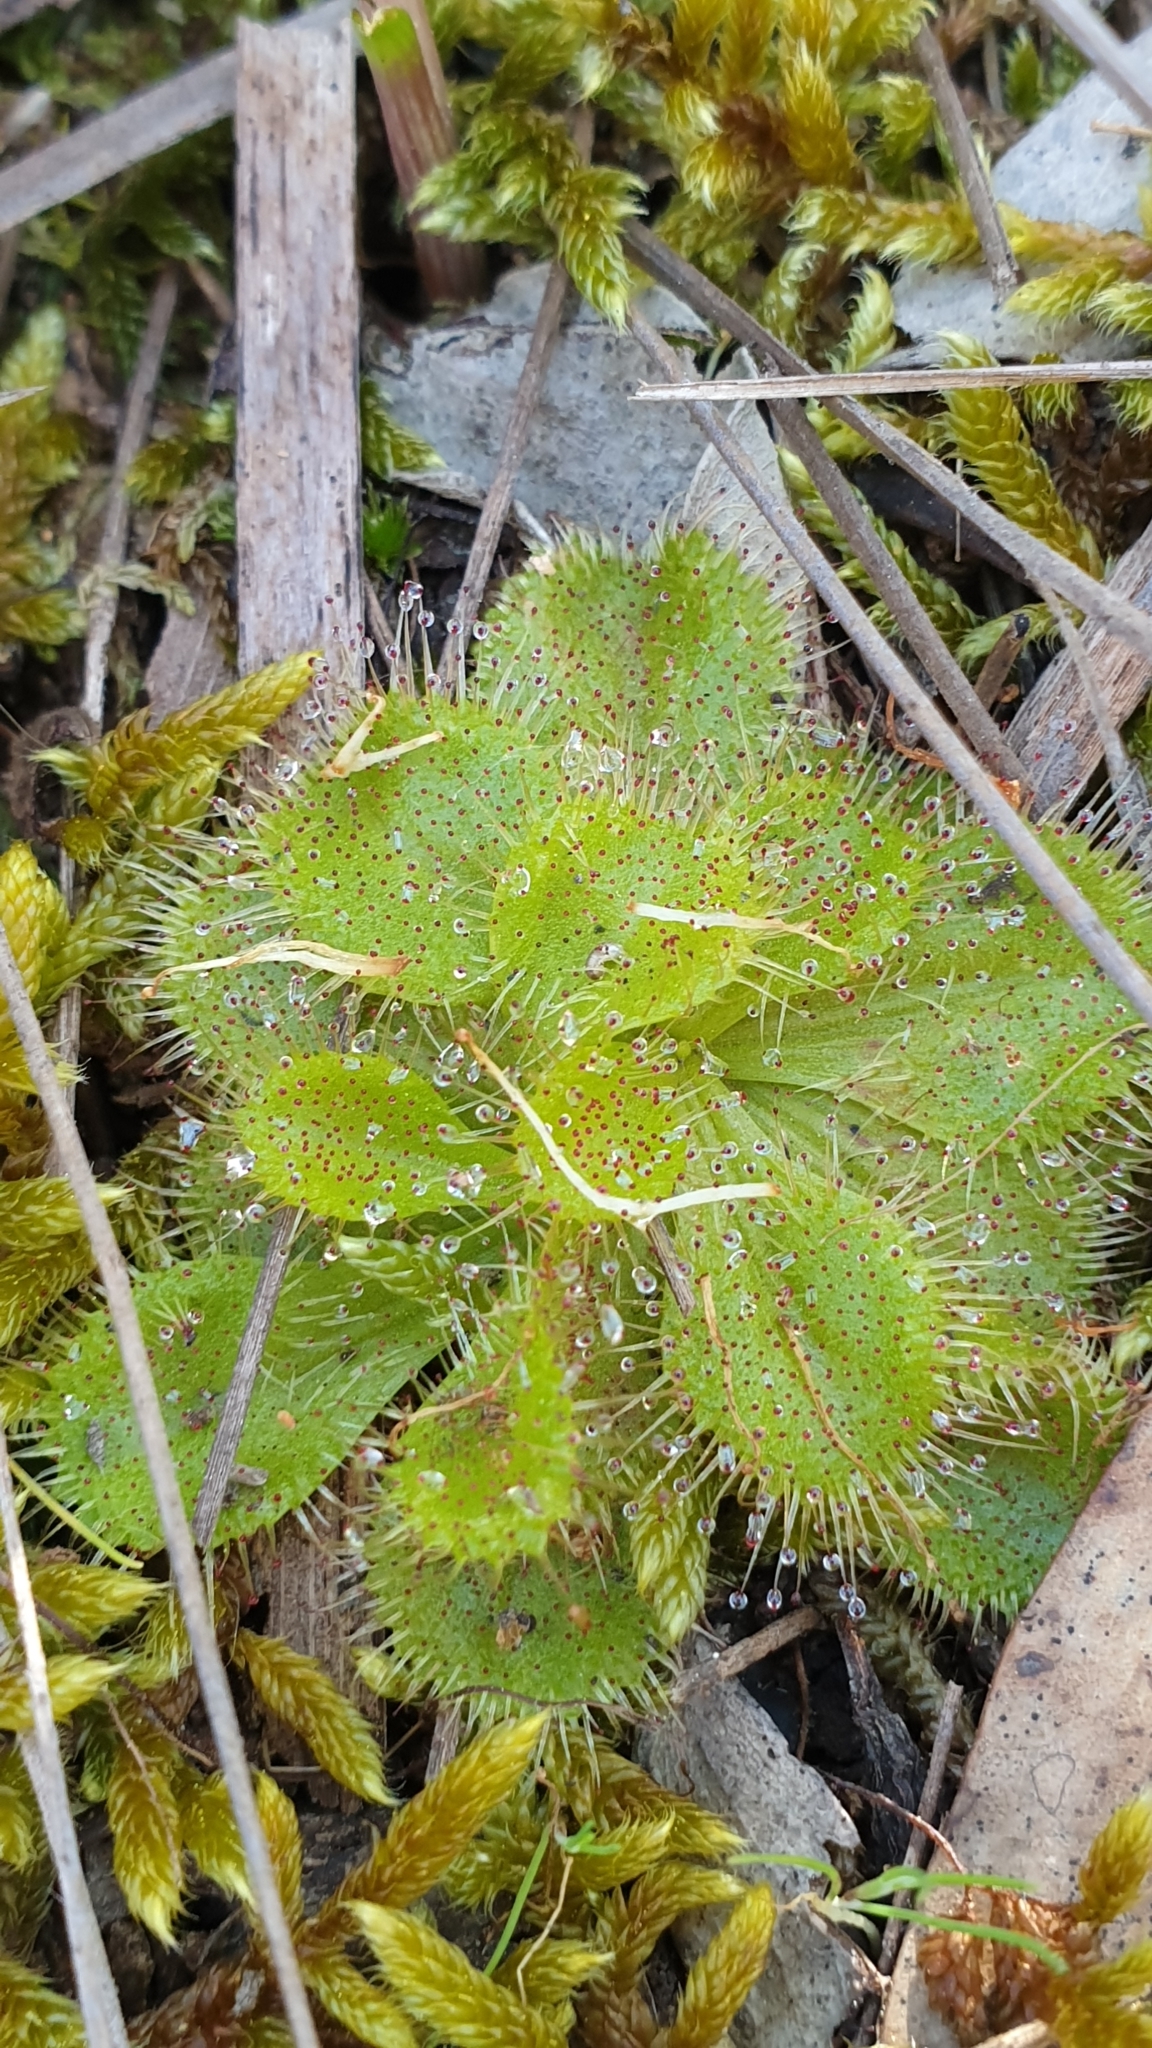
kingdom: Plantae
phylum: Tracheophyta
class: Magnoliopsida
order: Caryophyllales
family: Droseraceae
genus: Drosera
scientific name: Drosera whittakeri
